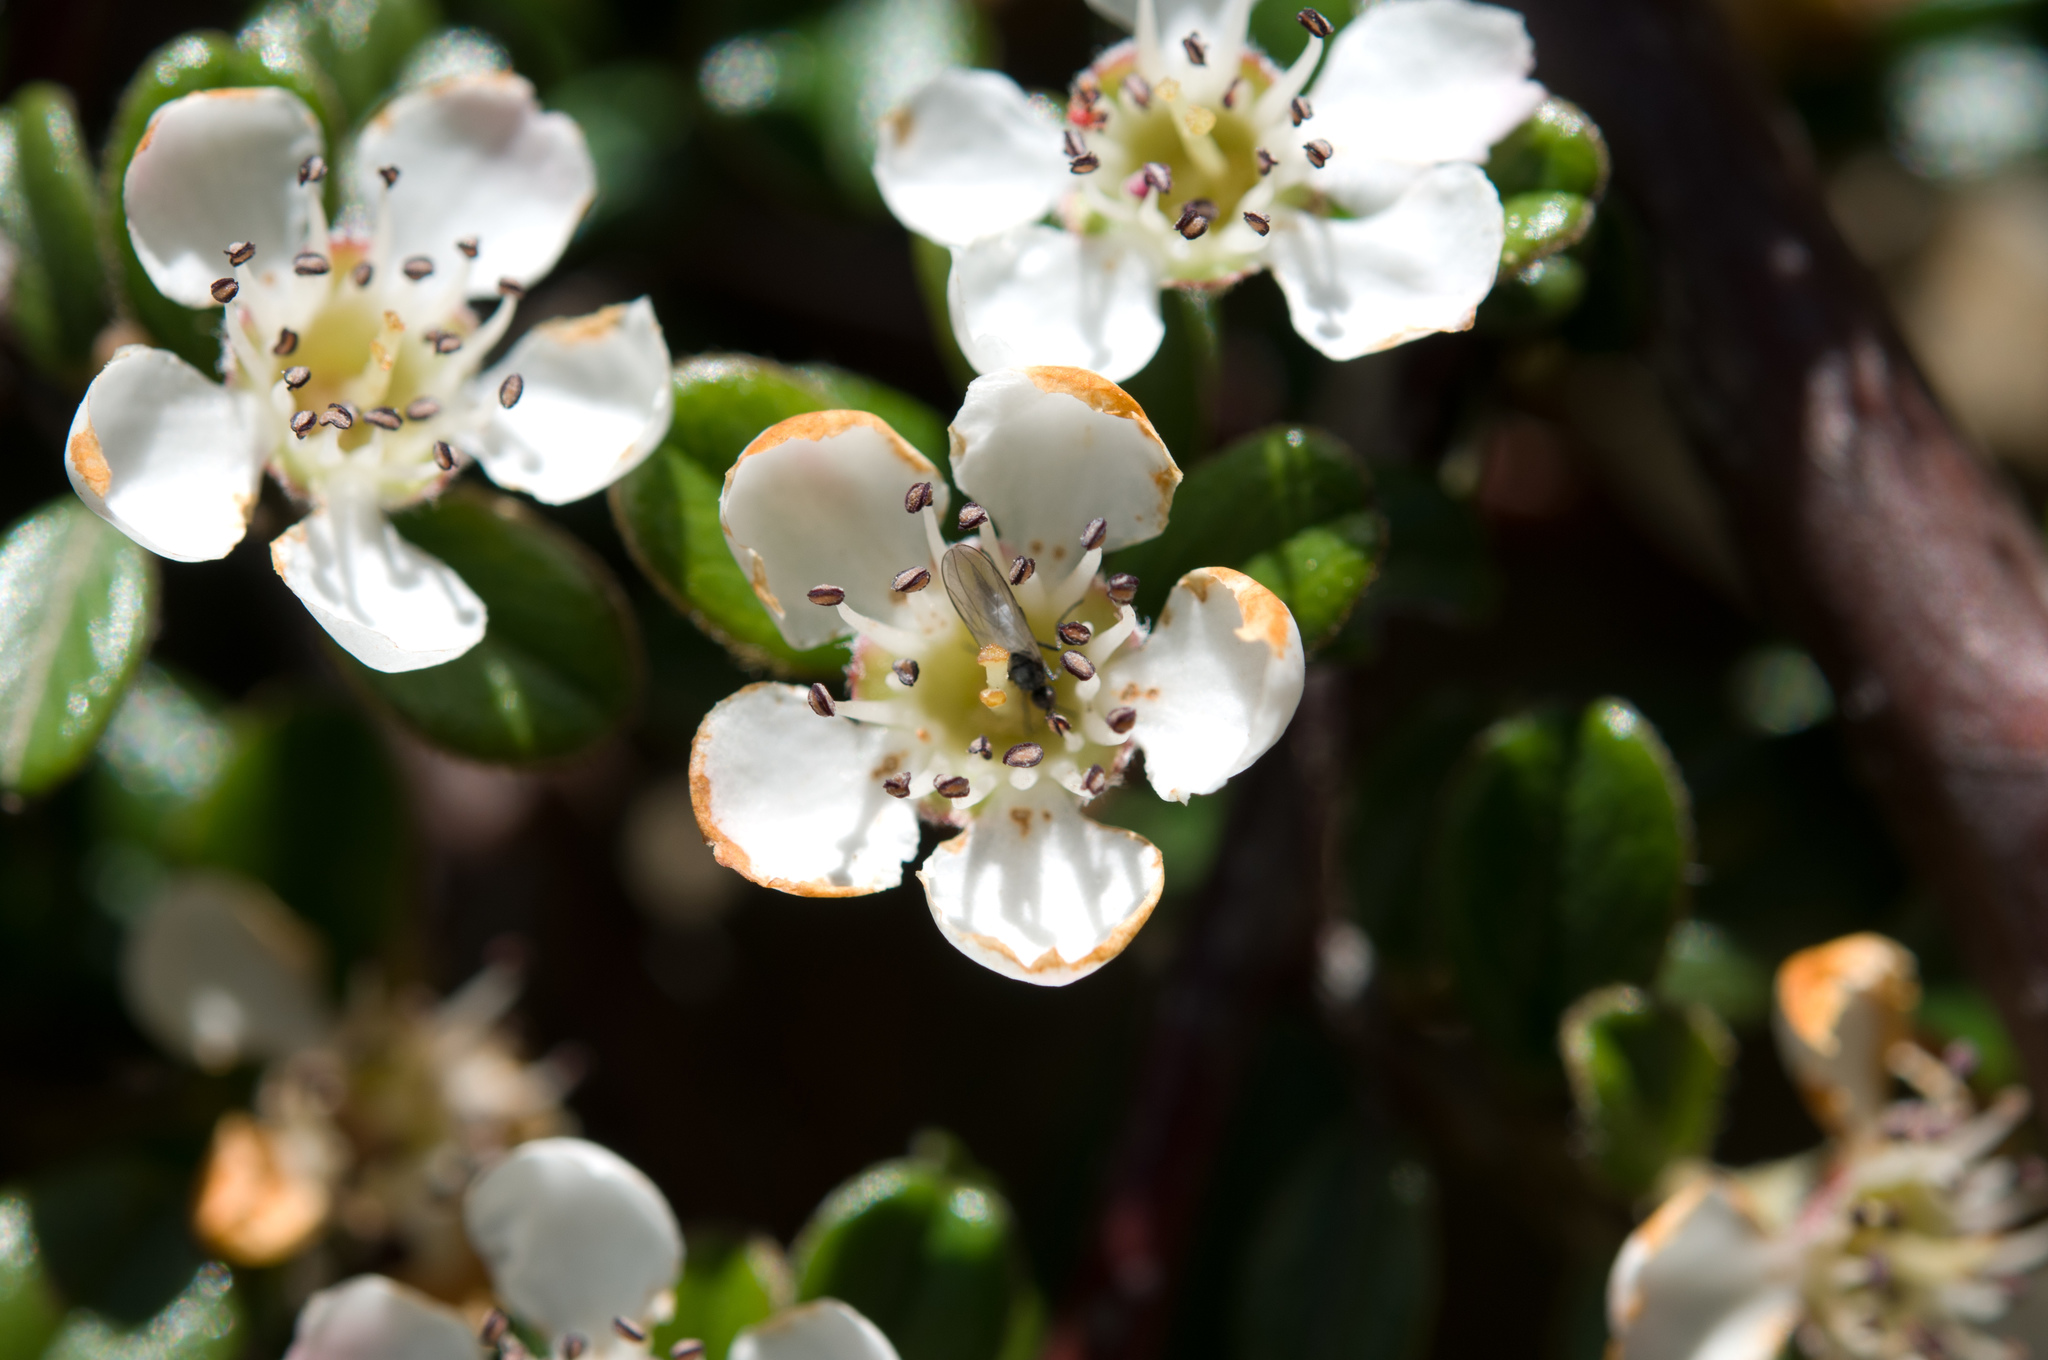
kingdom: Plantae
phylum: Tracheophyta
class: Magnoliopsida
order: Rosales
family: Rosaceae
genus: Cotoneaster
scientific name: Cotoneaster morrisonensis
